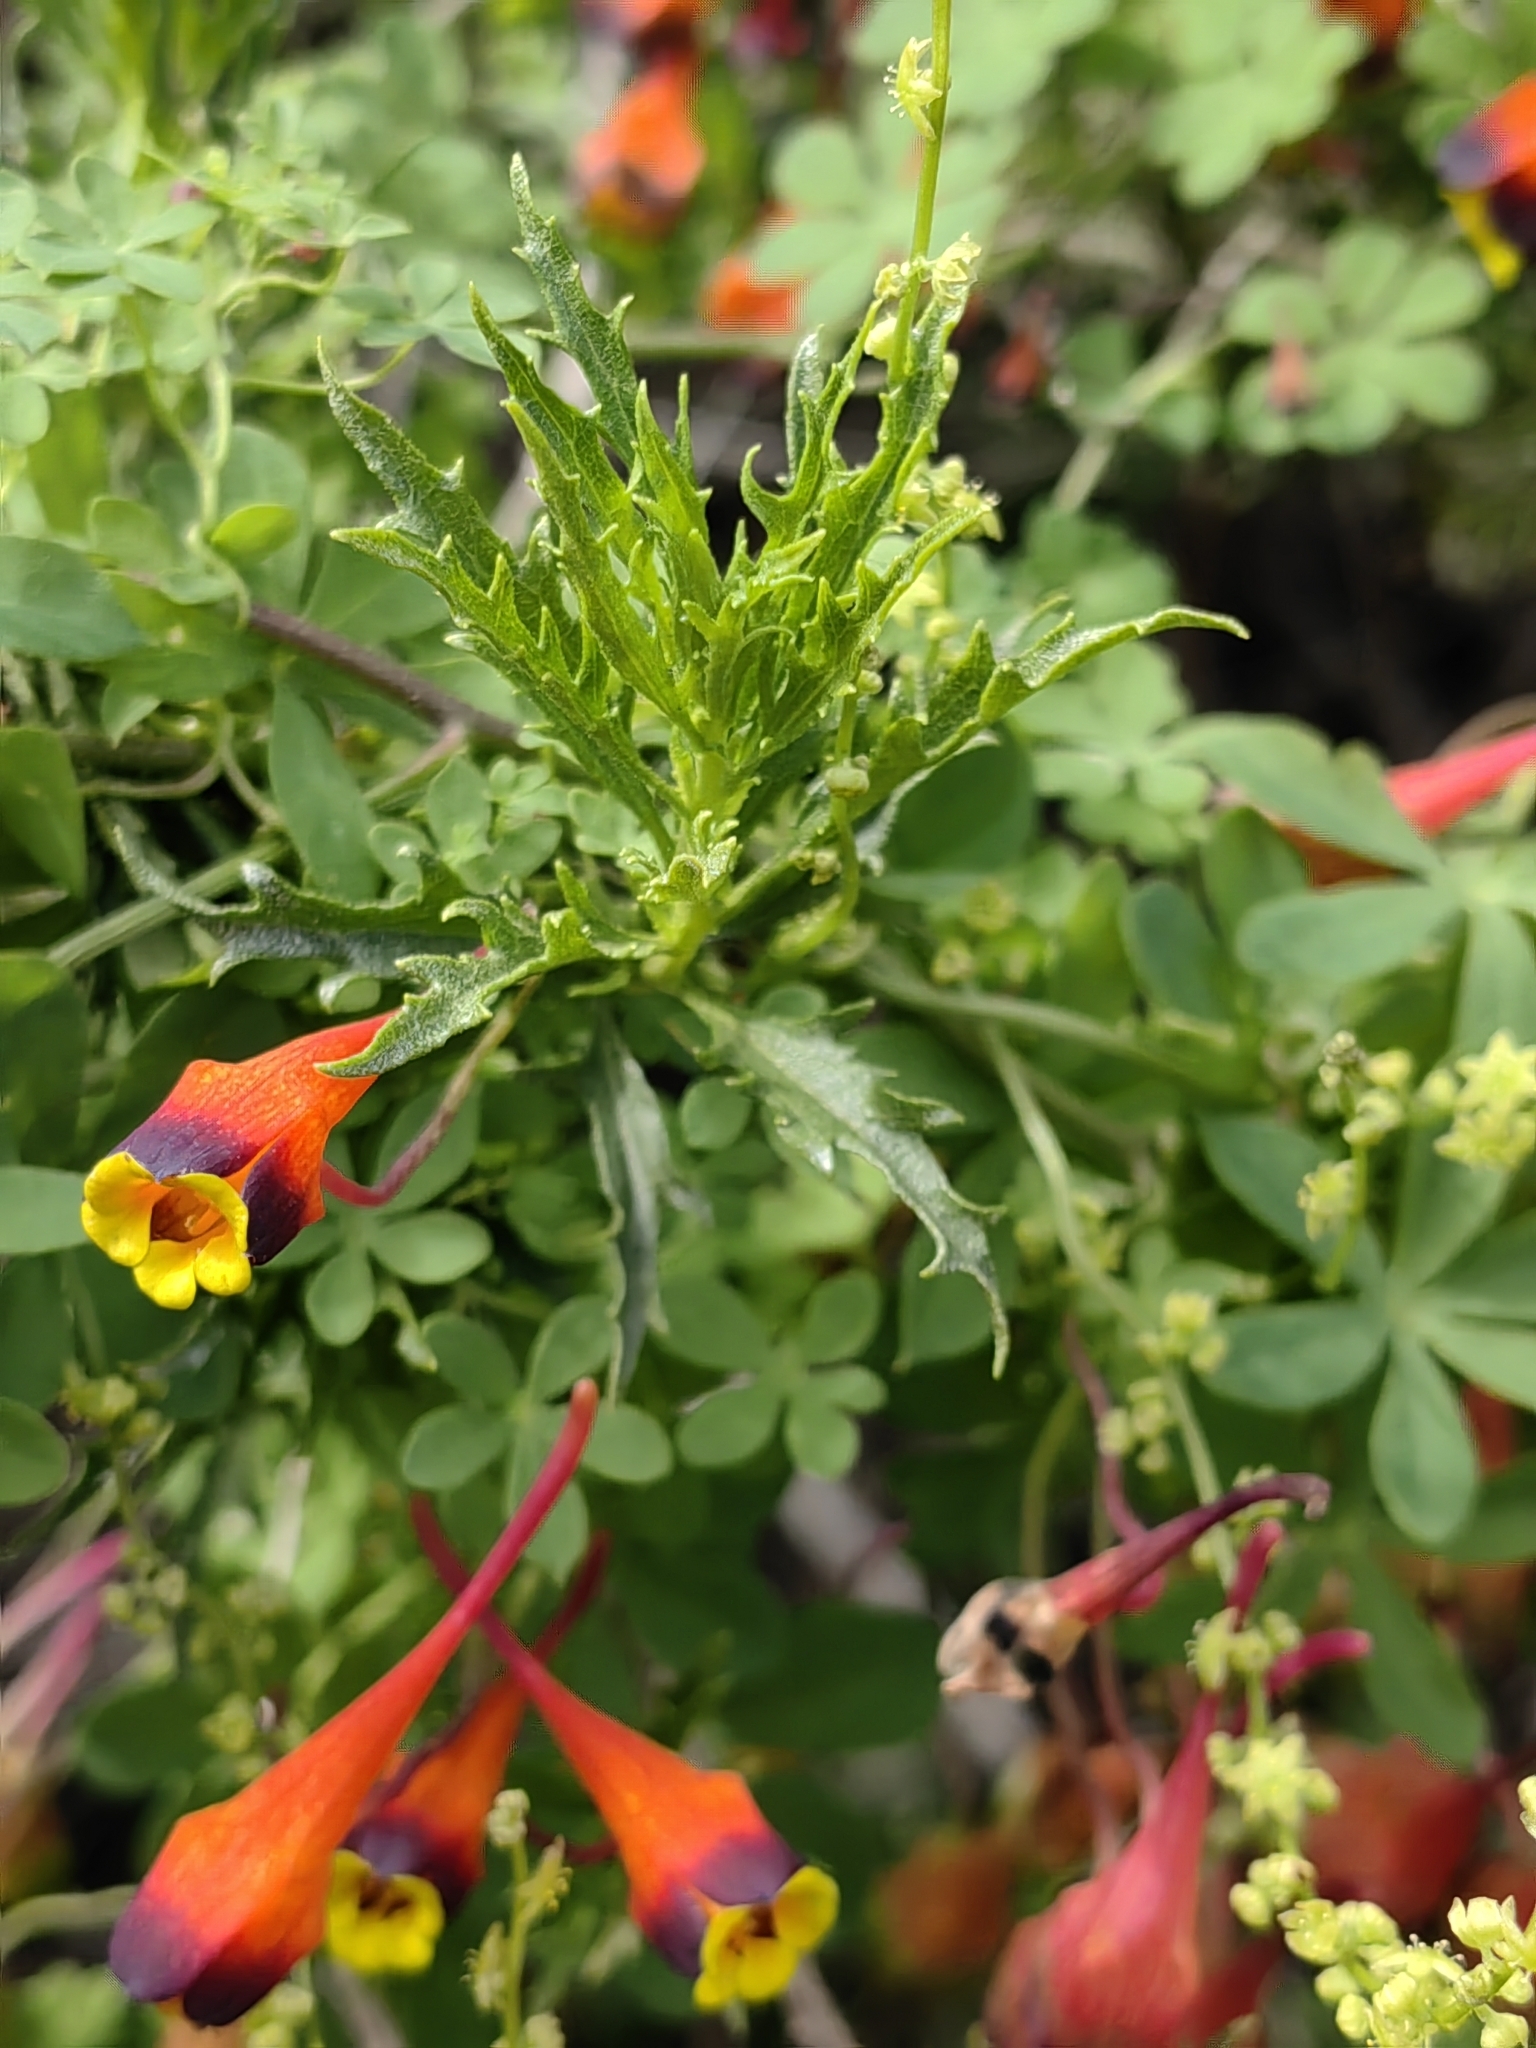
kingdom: Plantae
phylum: Tracheophyta
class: Magnoliopsida
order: Brassicales
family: Tropaeolaceae
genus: Tropaeolum
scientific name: Tropaeolum tricolor
